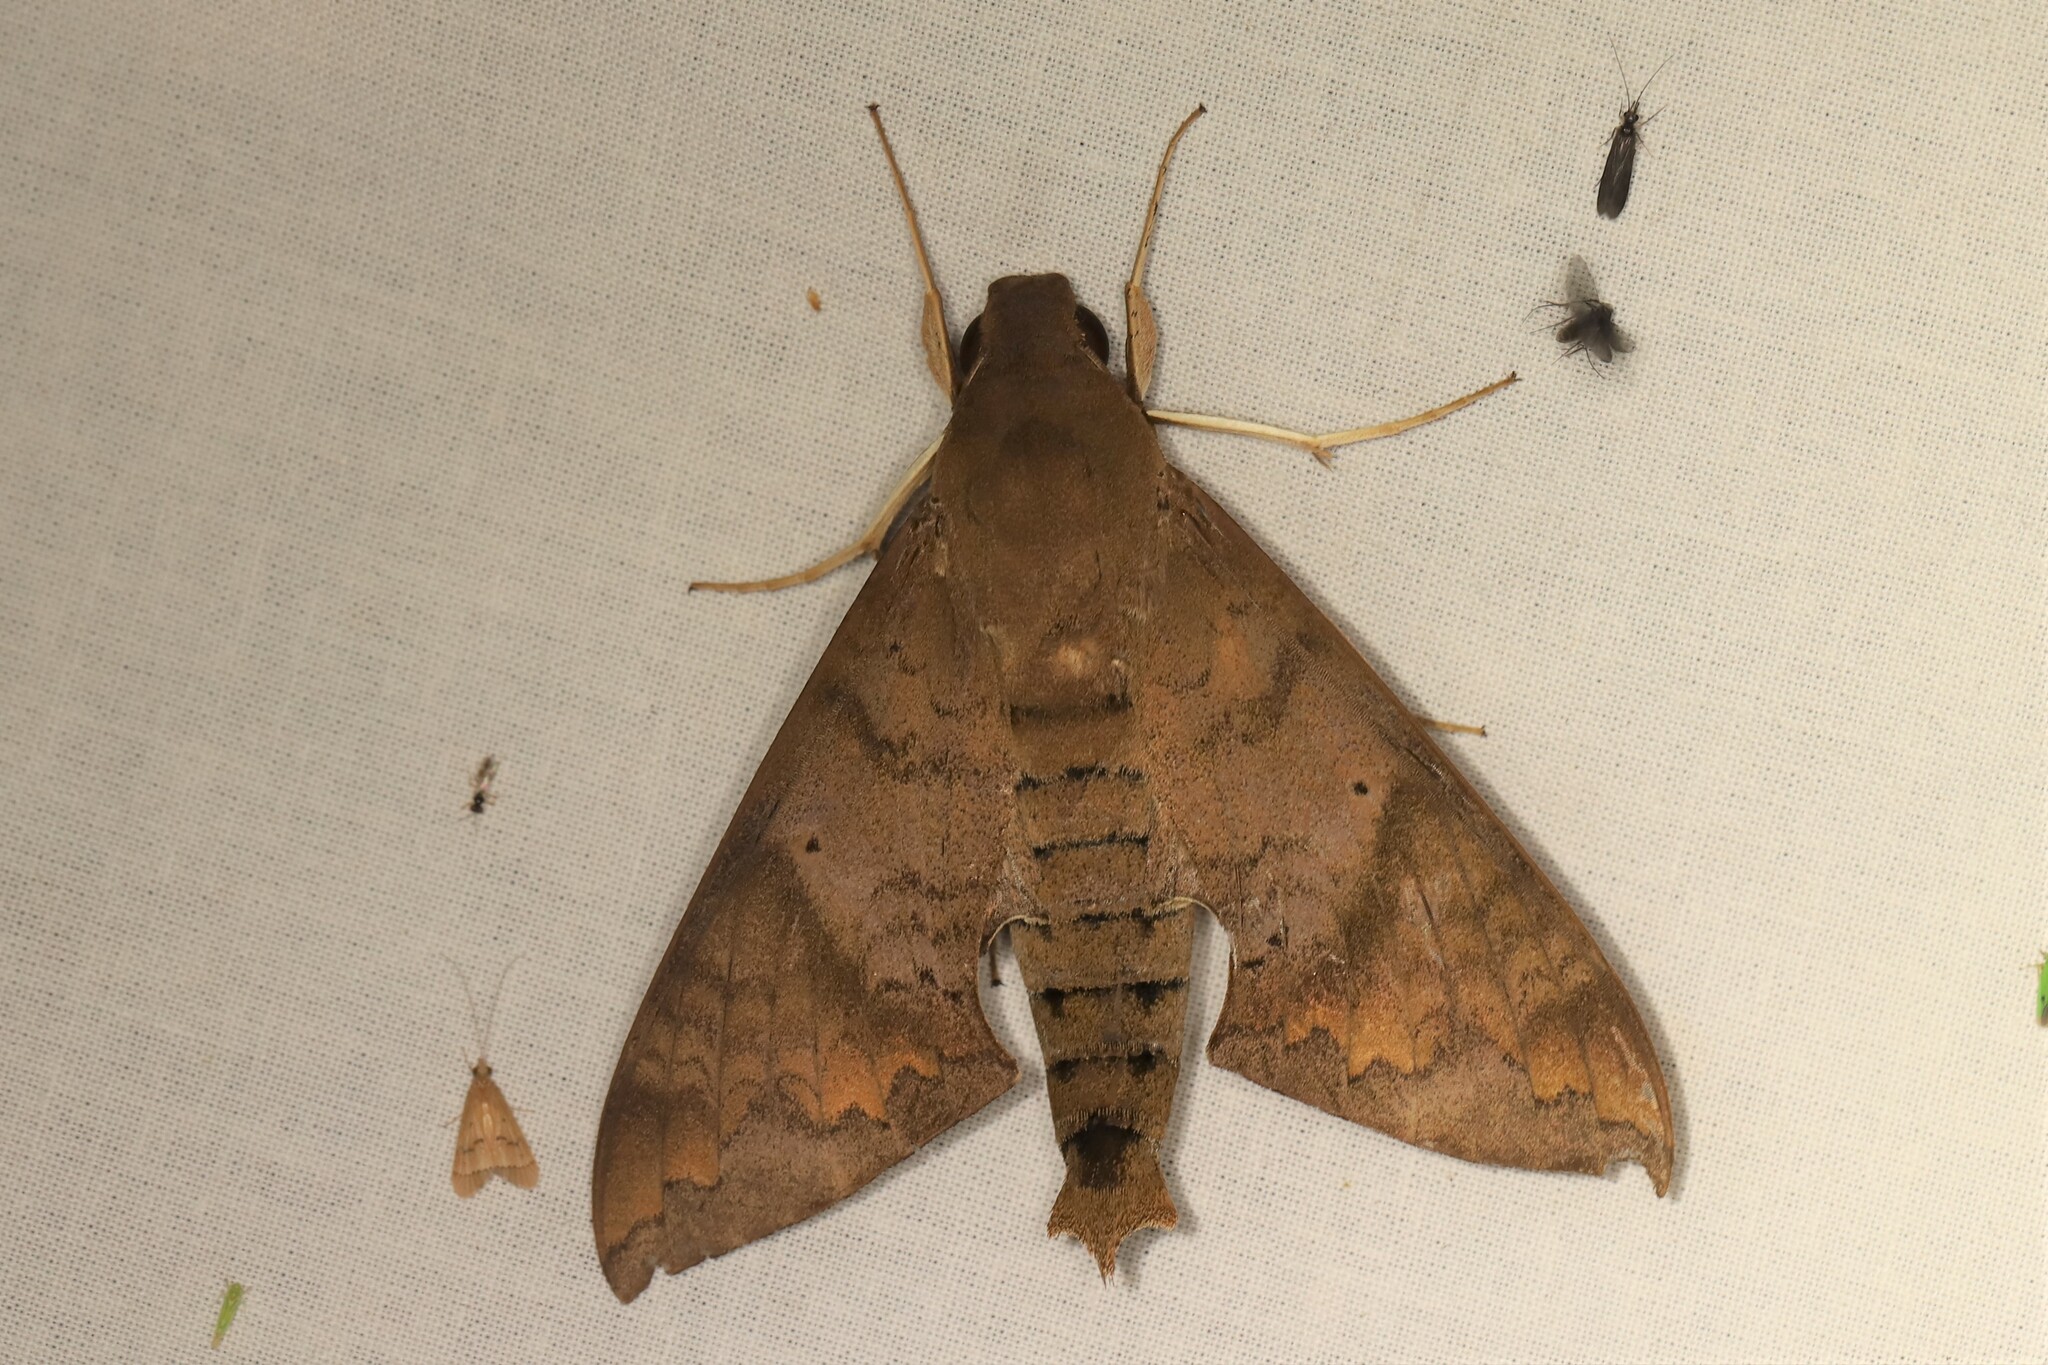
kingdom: Animalia
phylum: Arthropoda
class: Insecta
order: Lepidoptera
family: Sphingidae
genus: Pachylioides
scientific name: Pachylioides resumens
